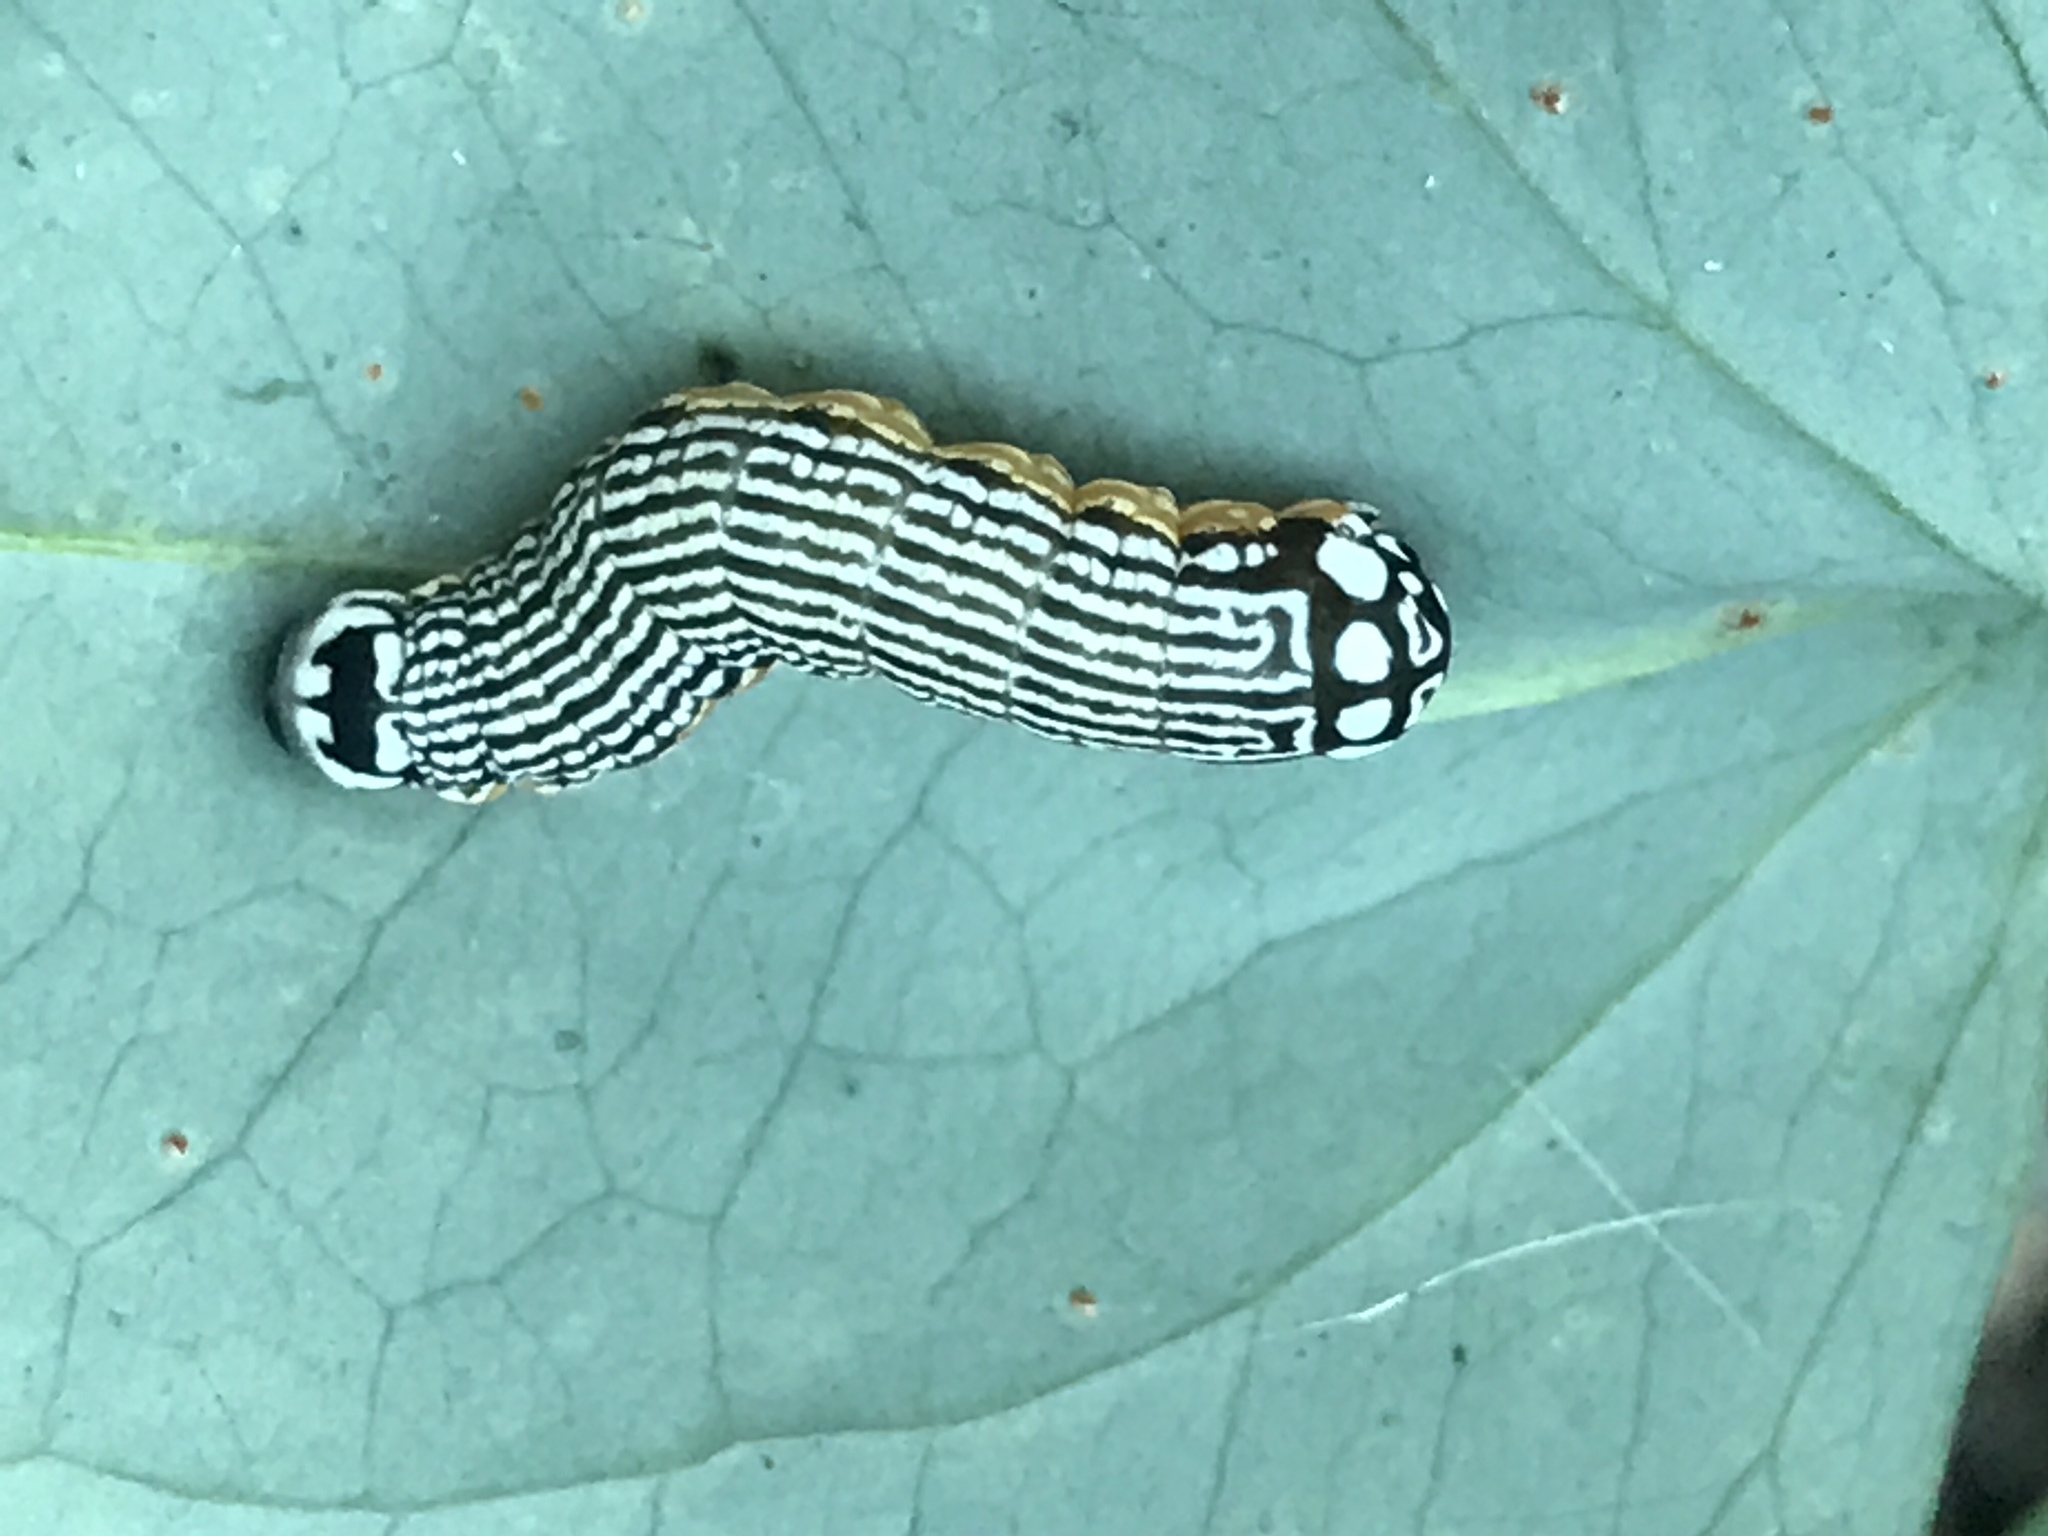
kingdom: Animalia
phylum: Arthropoda
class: Insecta
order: Lepidoptera
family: Noctuidae
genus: Phosphila
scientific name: Phosphila turbulenta
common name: Turbulent phosphila moth
